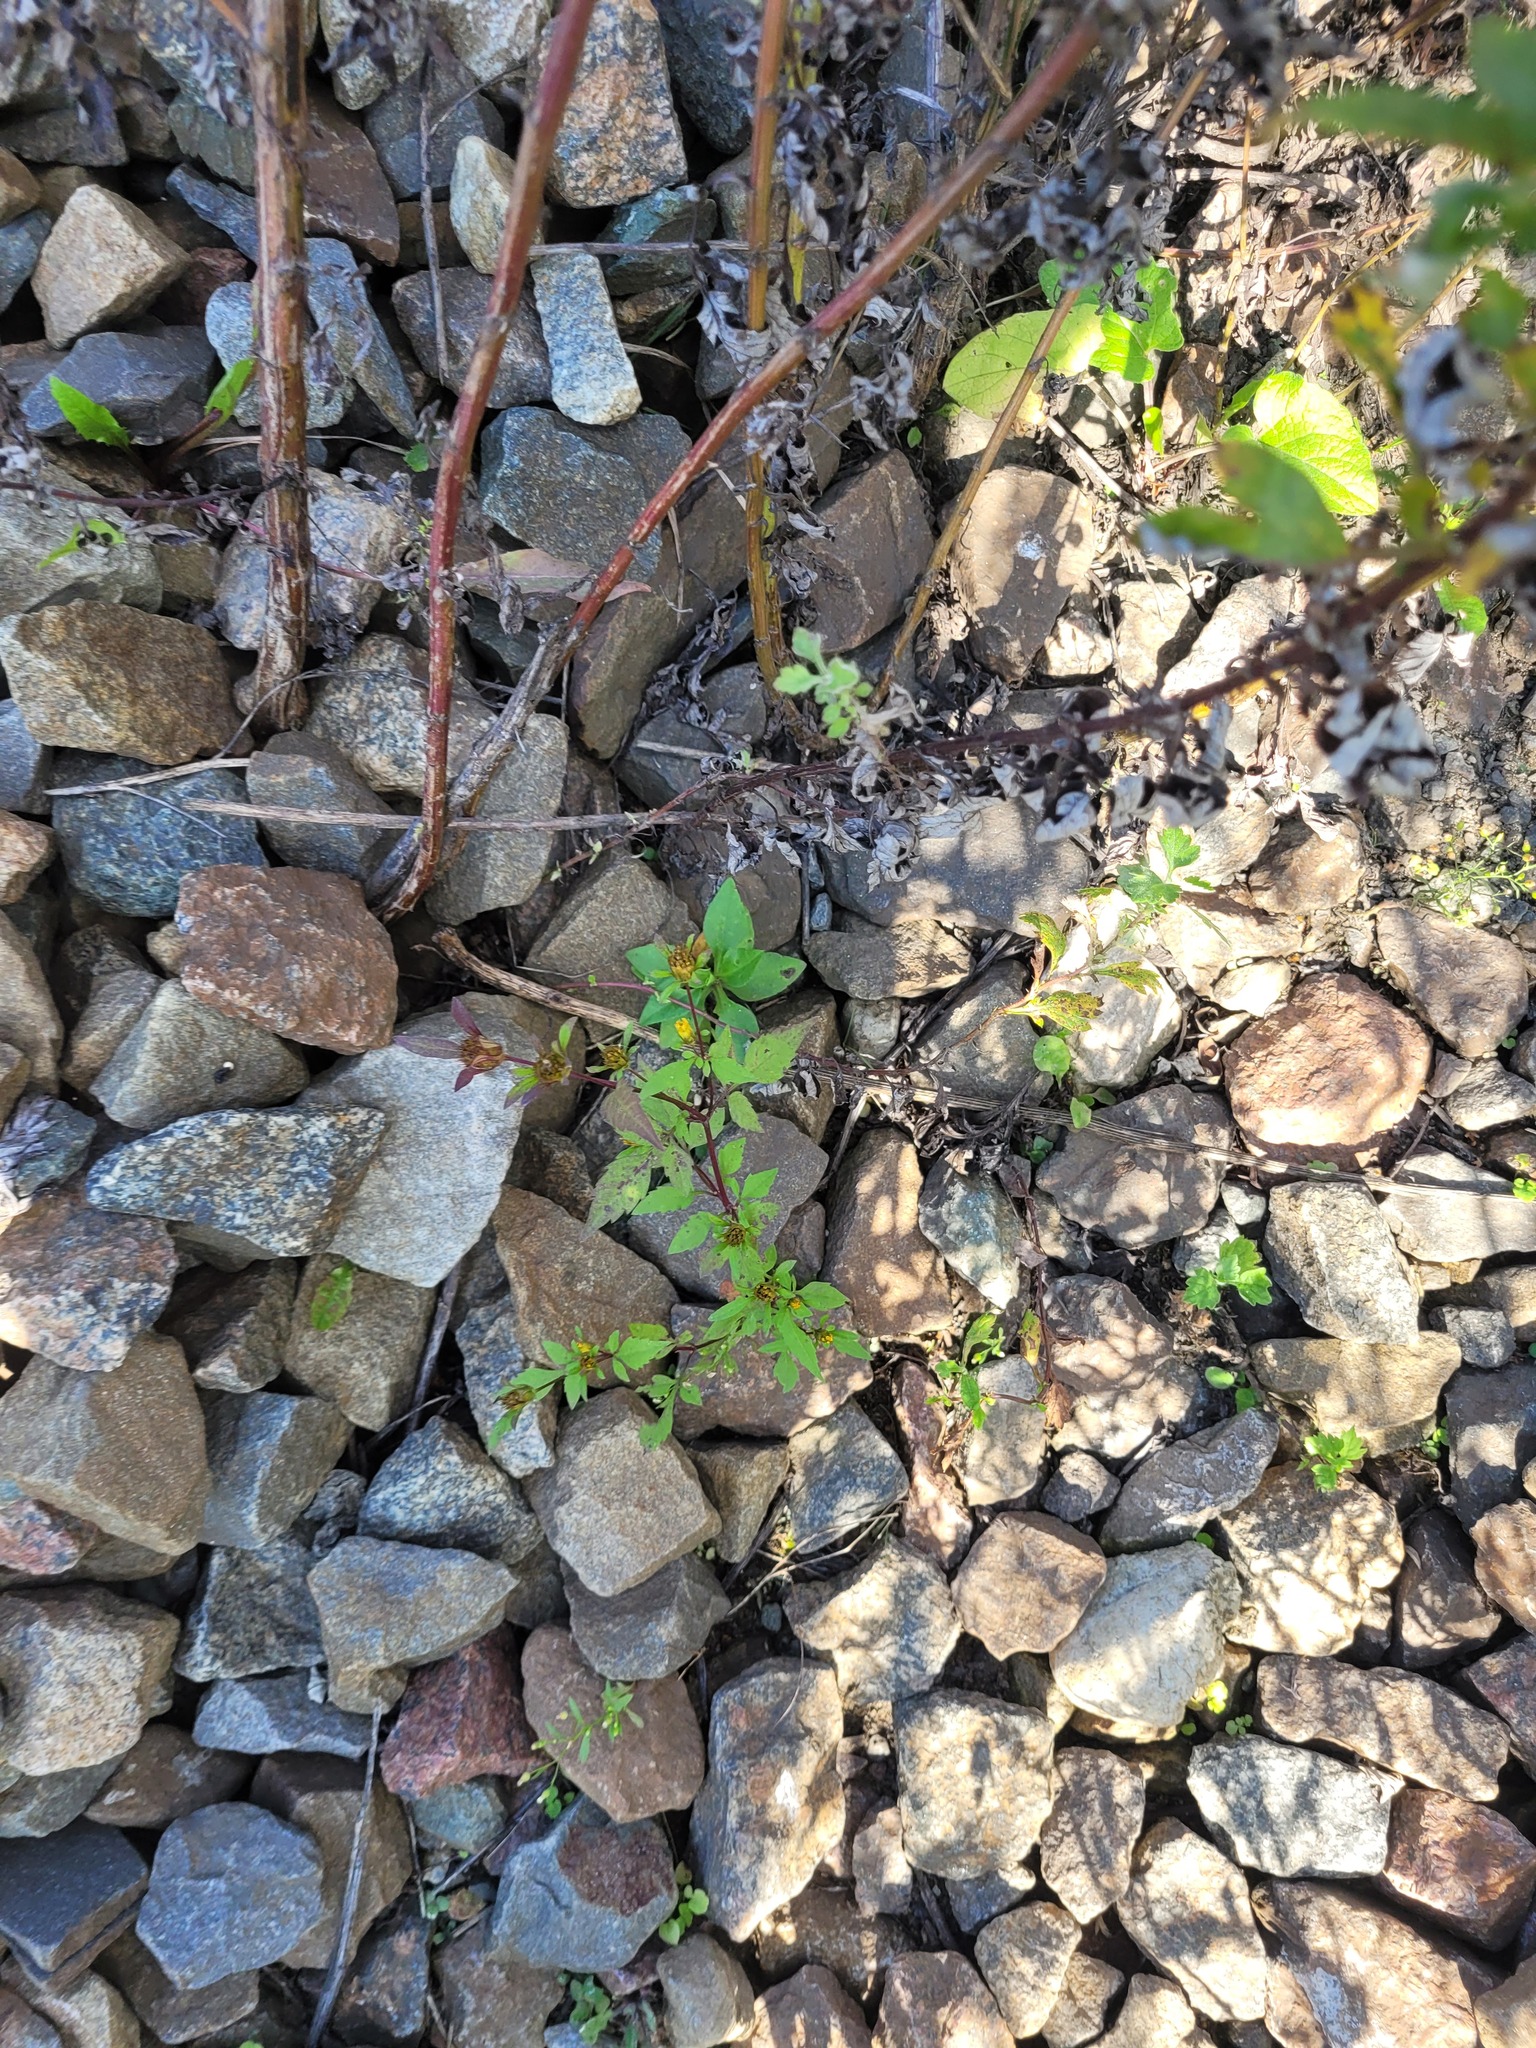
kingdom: Plantae
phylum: Tracheophyta
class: Magnoliopsida
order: Asterales
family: Asteraceae
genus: Bidens
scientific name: Bidens frondosa
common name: Beggarticks
